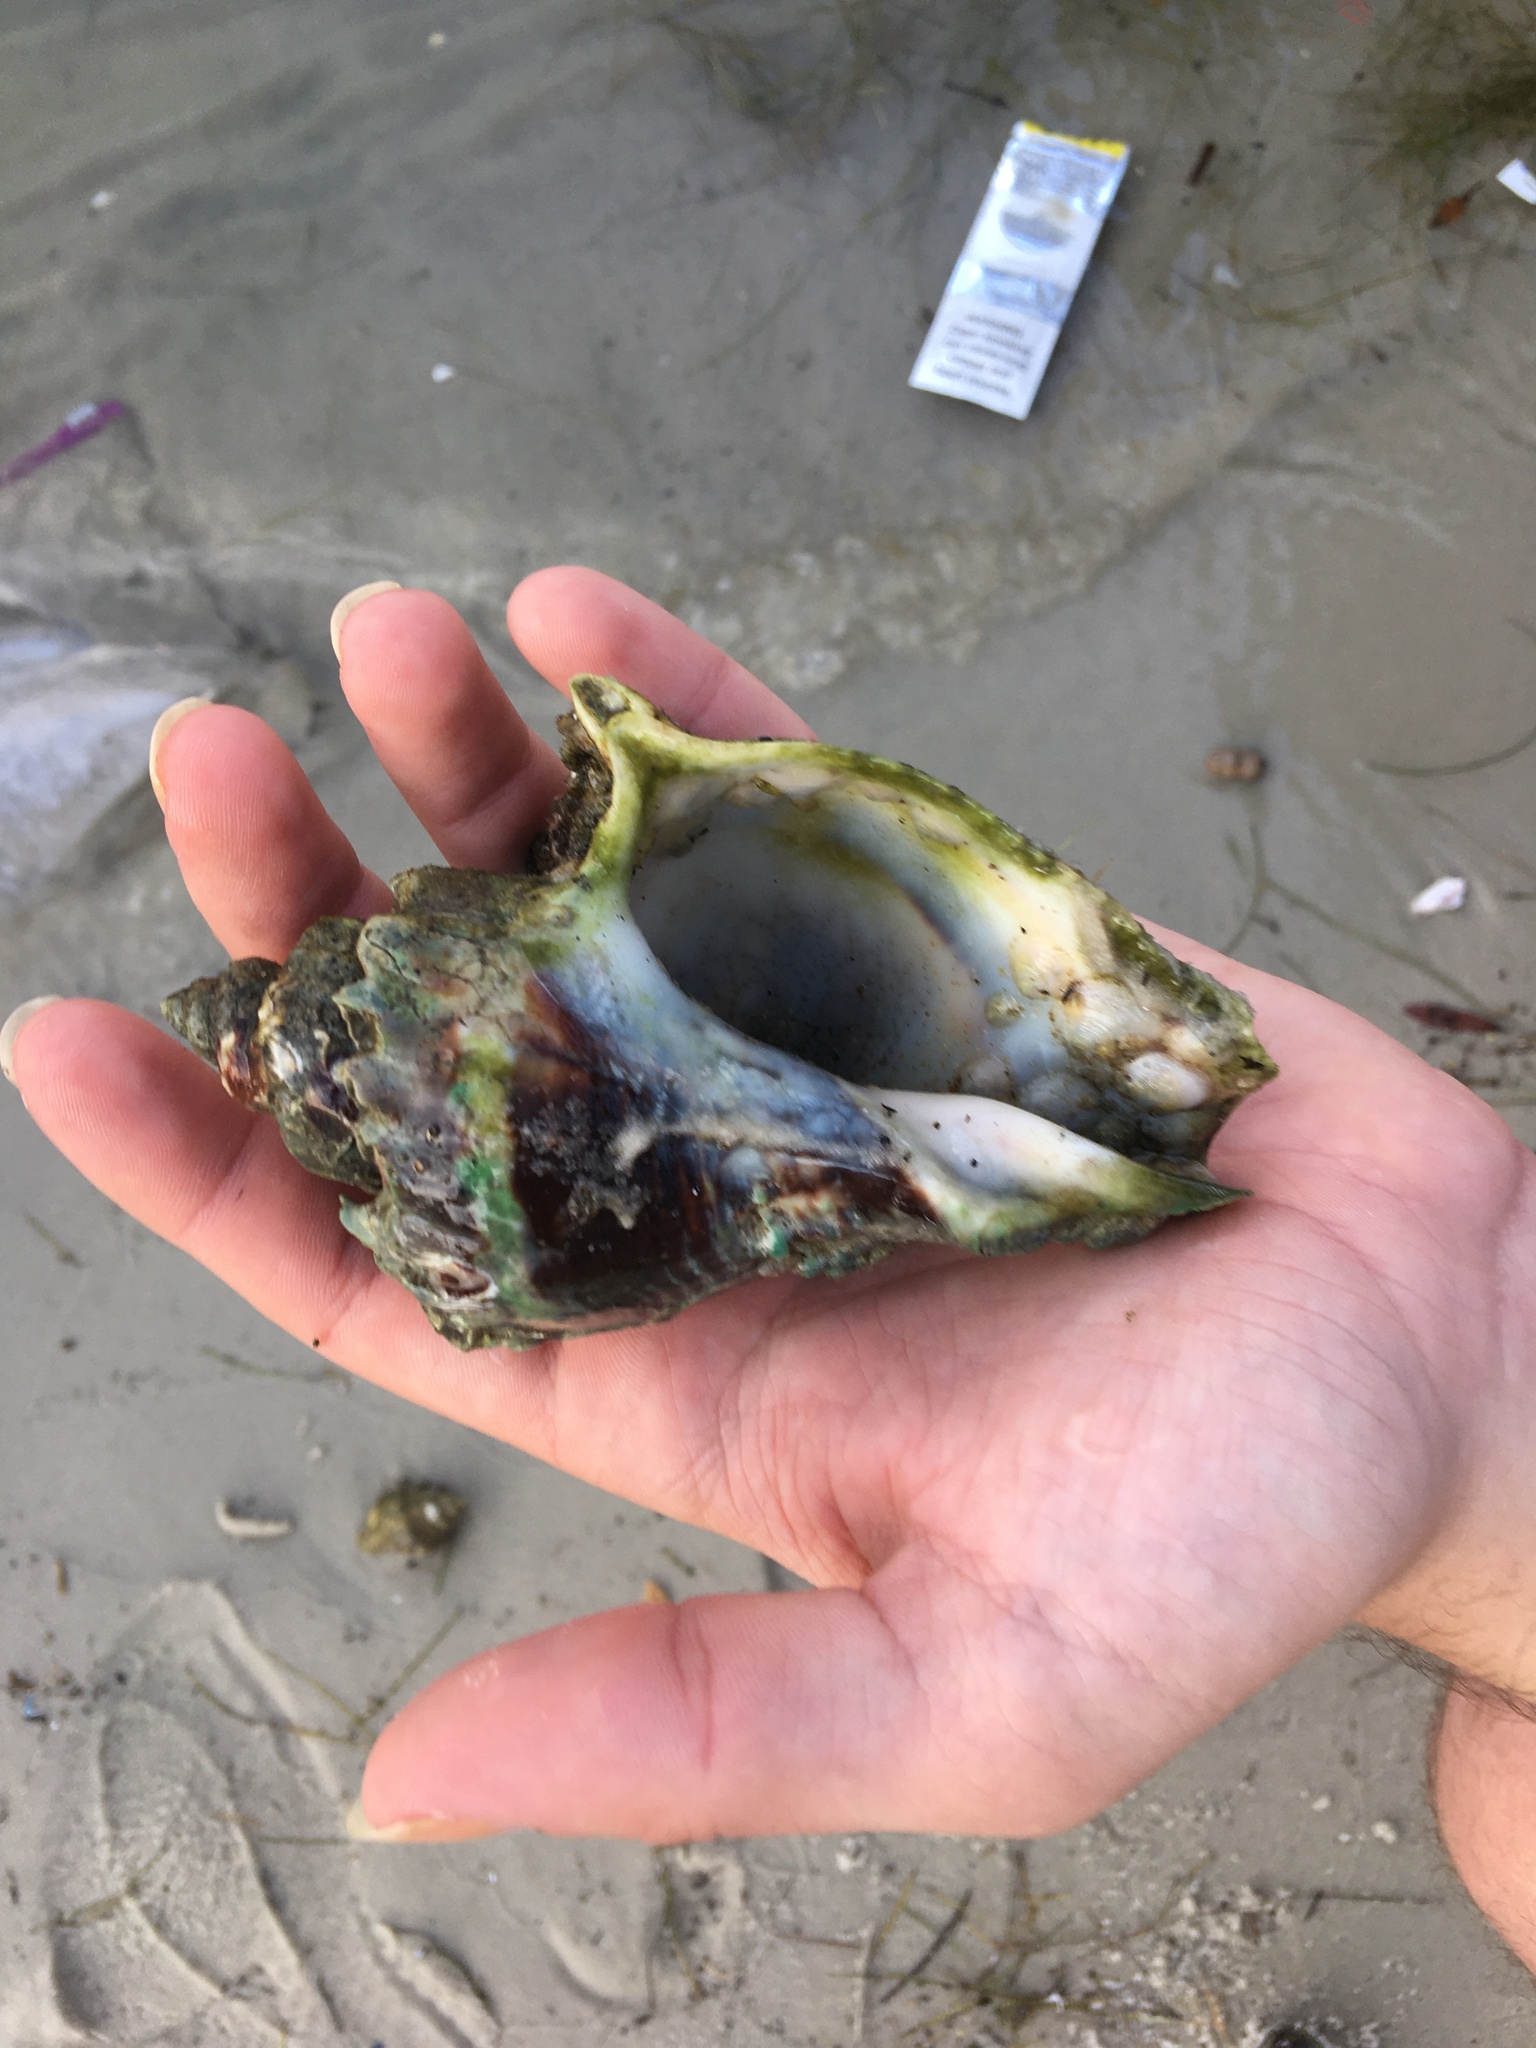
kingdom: Animalia
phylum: Mollusca
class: Gastropoda
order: Neogastropoda
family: Melongenidae
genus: Melongena
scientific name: Melongena corona
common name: American crown conch
